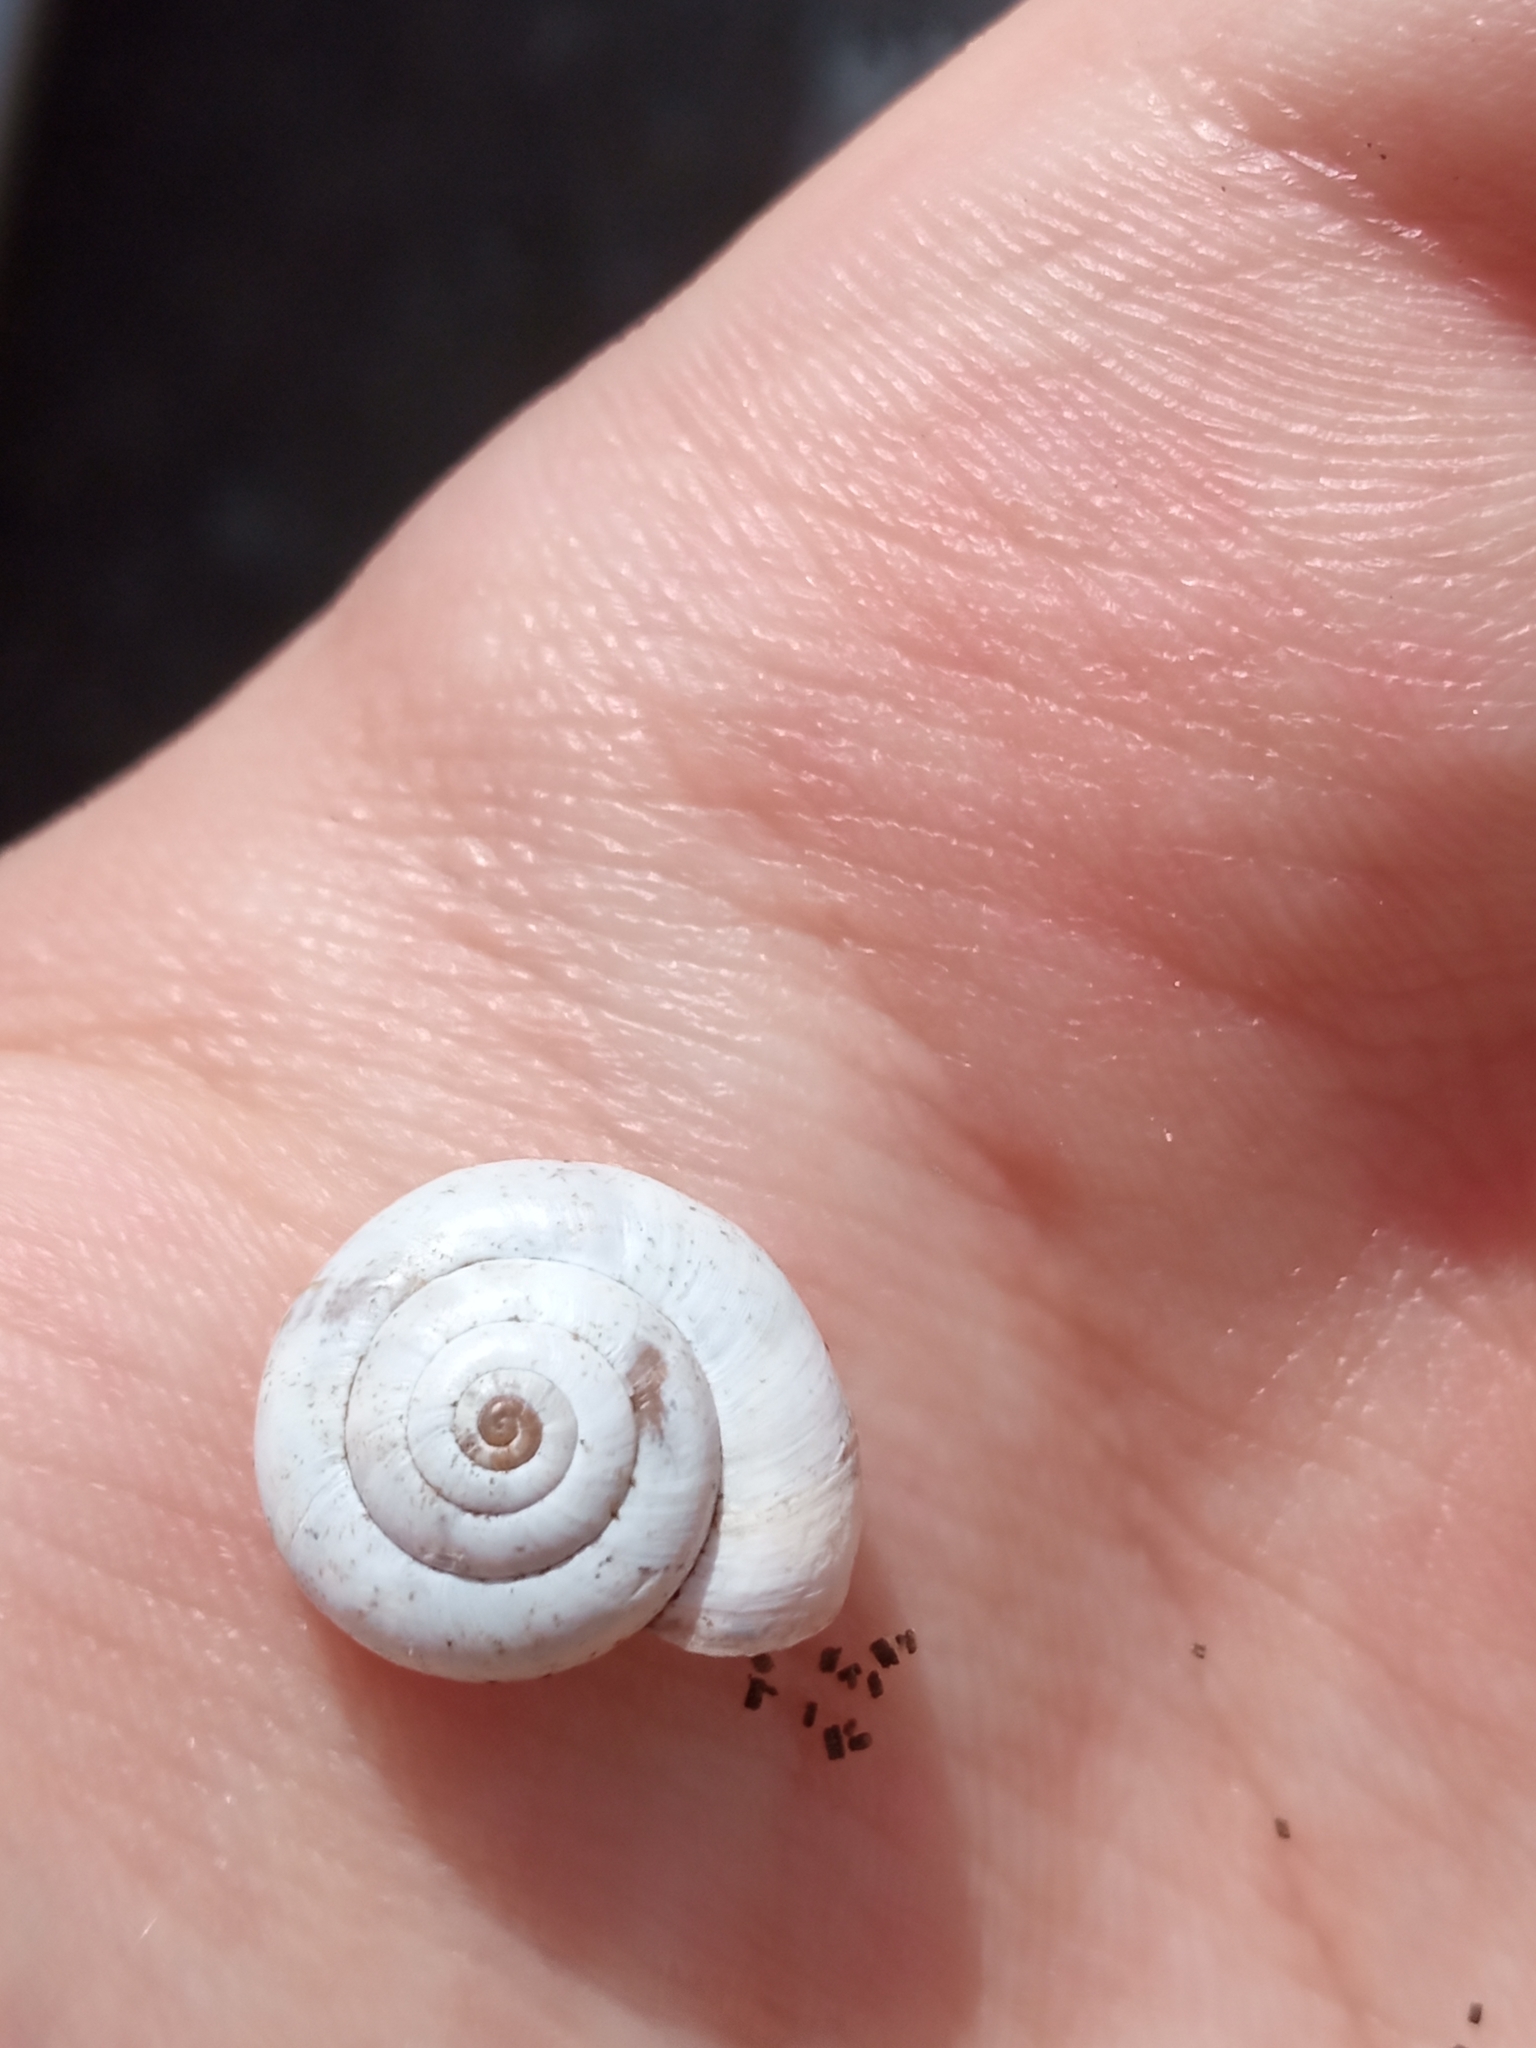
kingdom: Animalia
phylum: Mollusca
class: Gastropoda
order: Stylommatophora
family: Geomitridae
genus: Xeropicta
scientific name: Xeropicta derbentina
